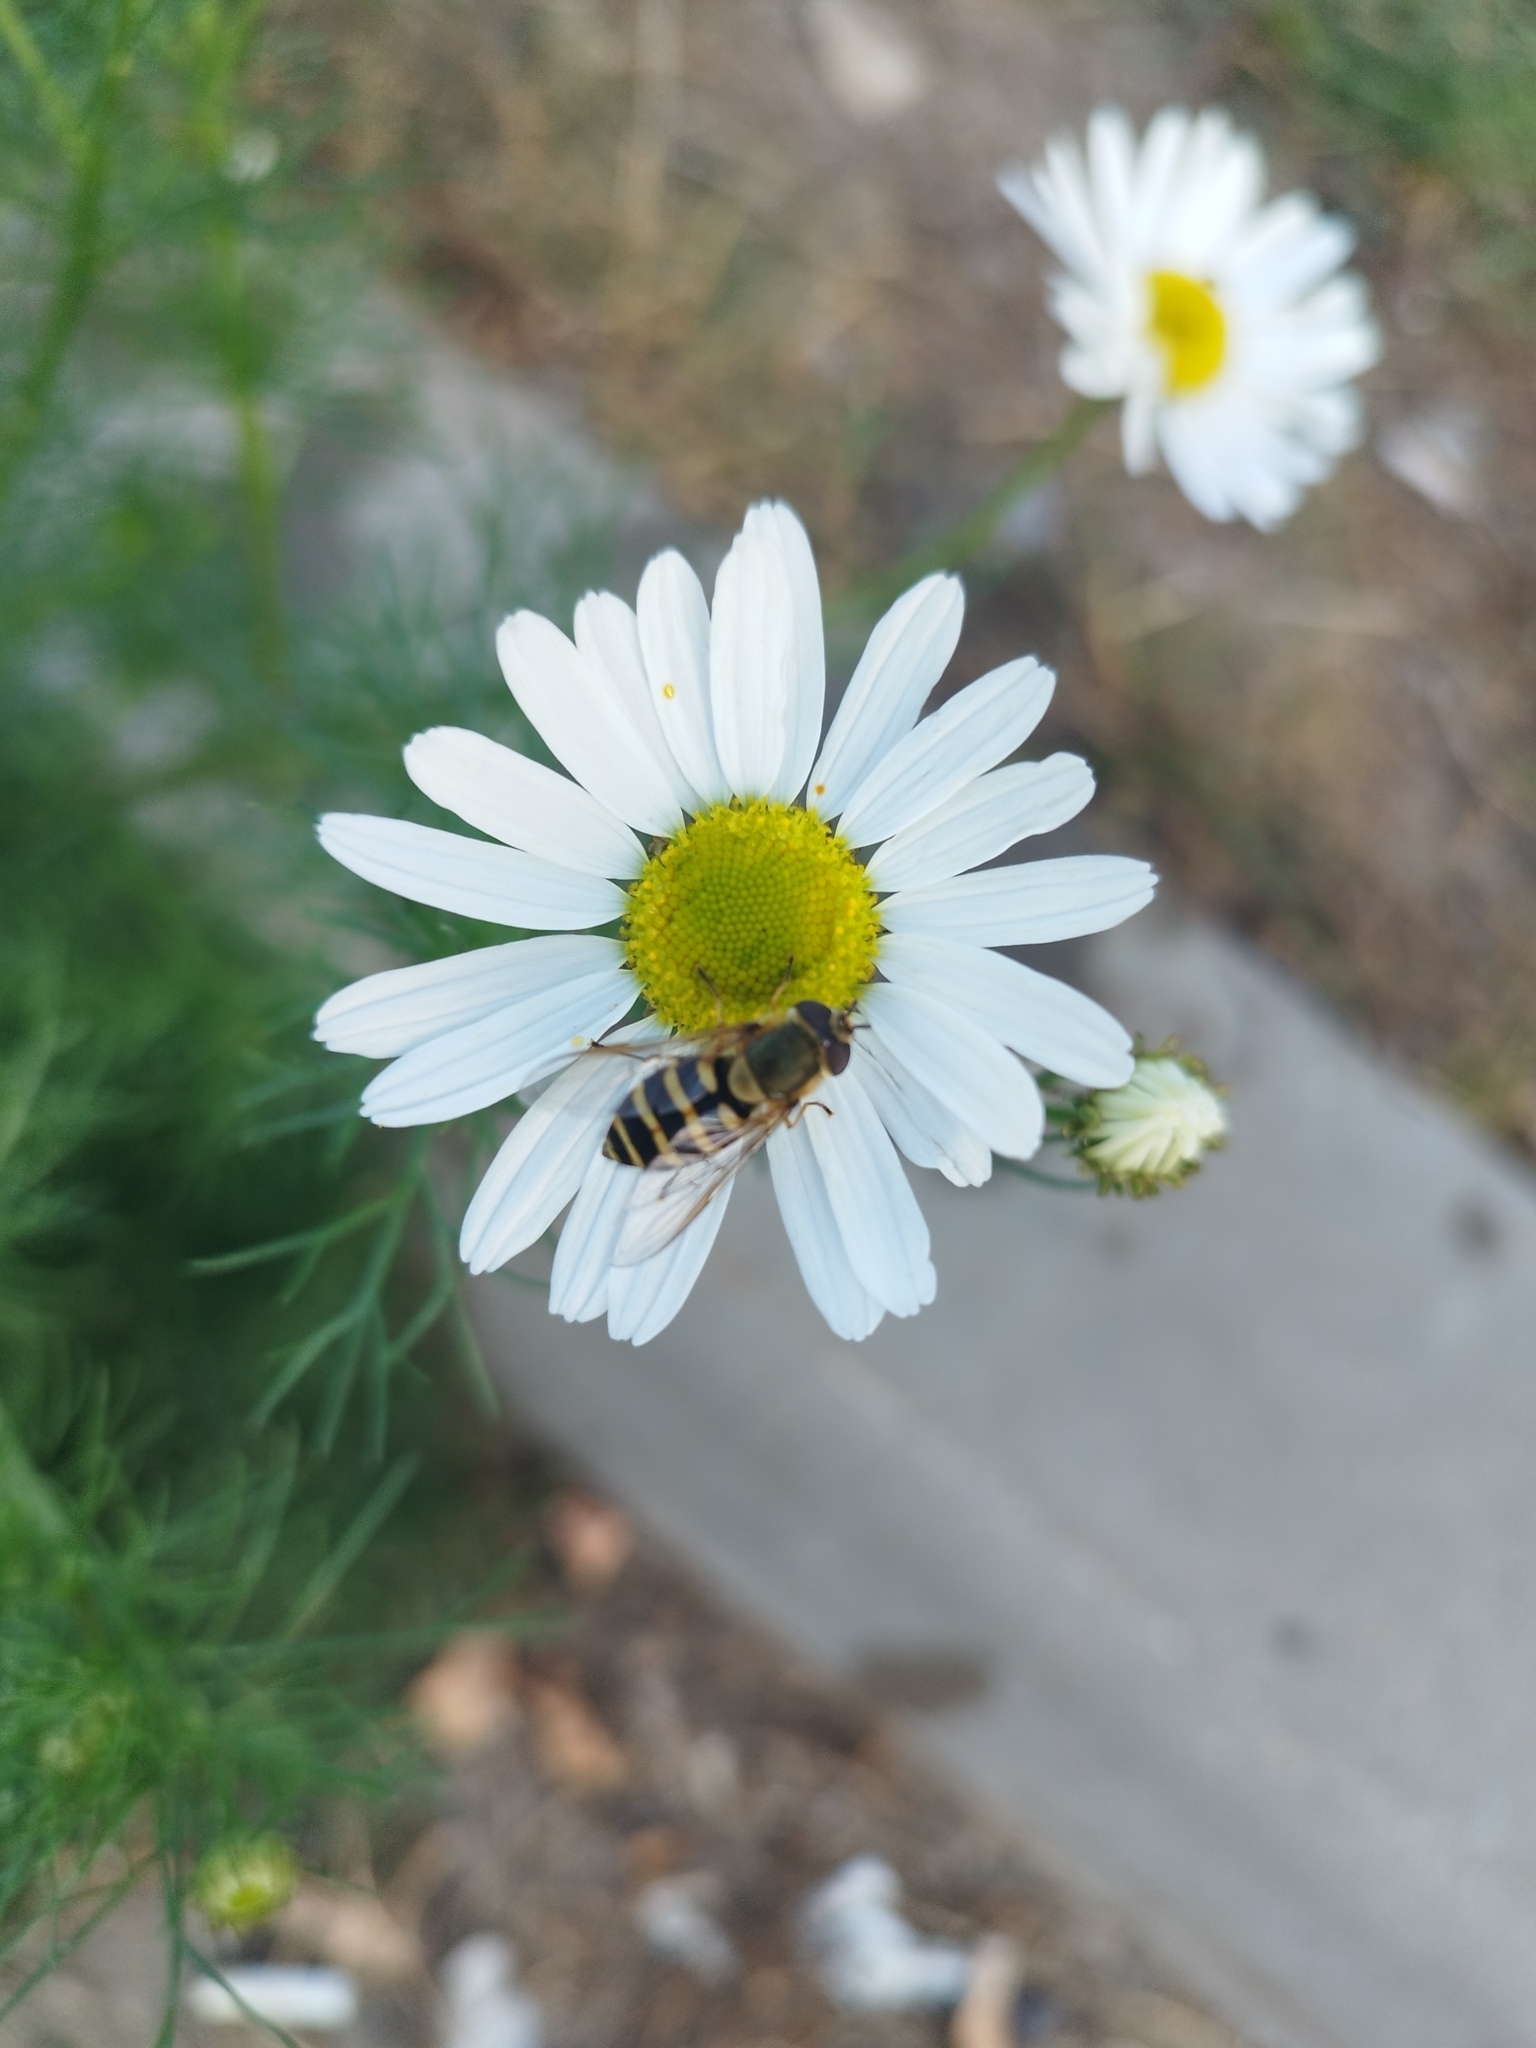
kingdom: Plantae
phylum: Tracheophyta
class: Magnoliopsida
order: Asterales
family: Asteraceae
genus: Tripleurospermum
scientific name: Tripleurospermum inodorum
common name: Scentless mayweed
